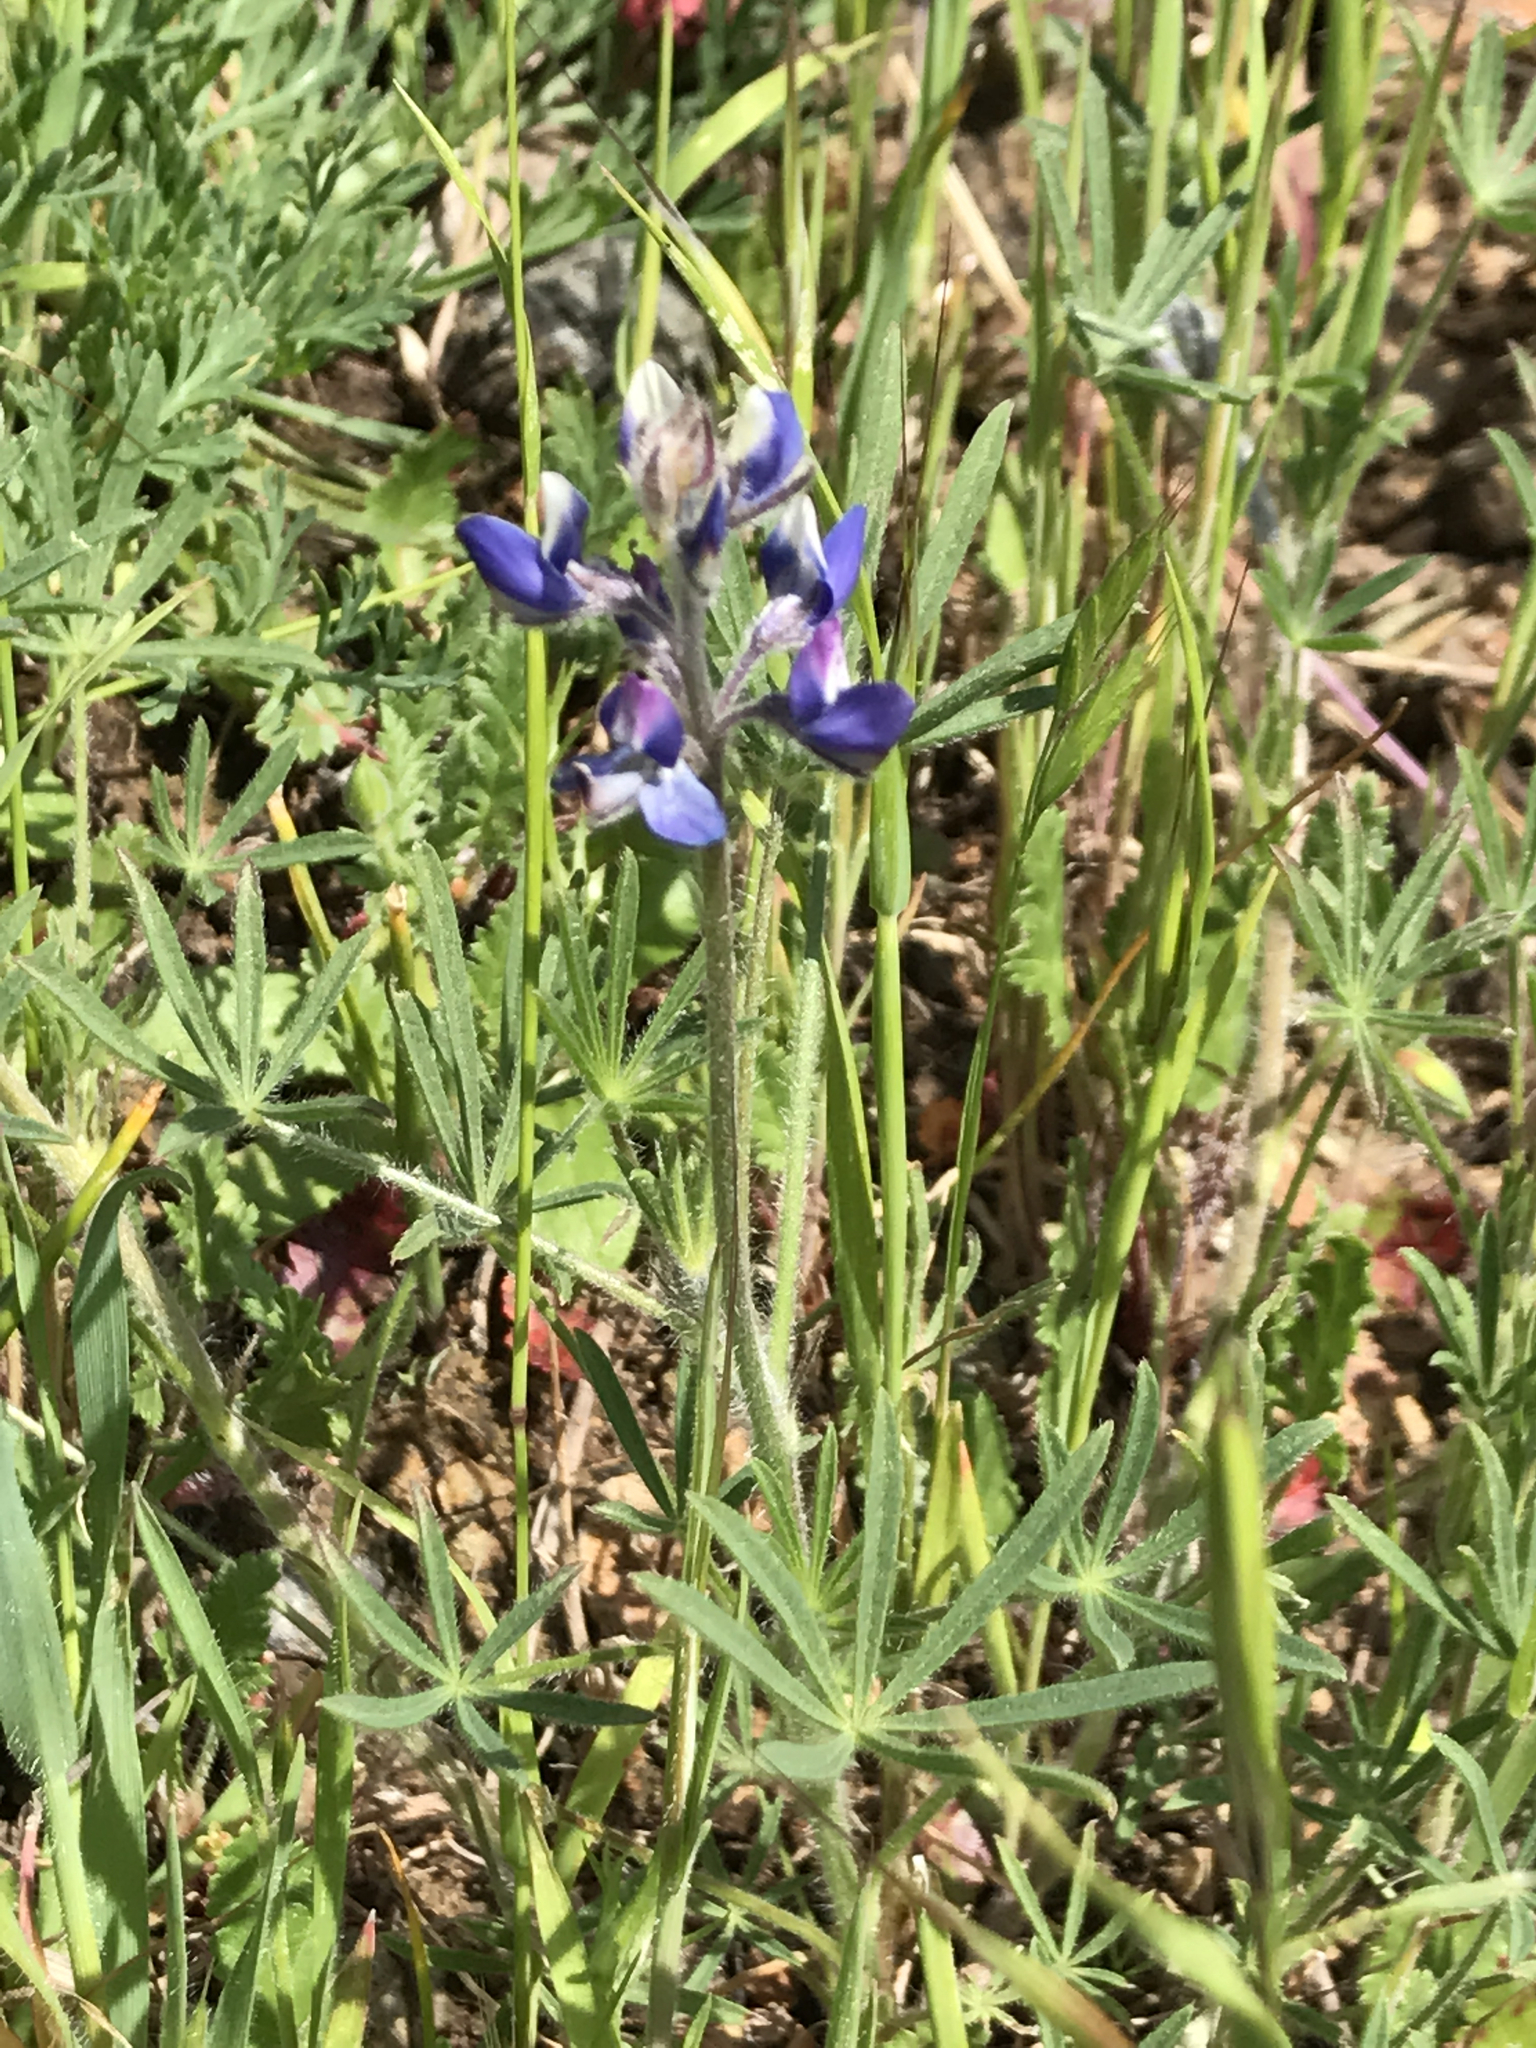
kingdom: Plantae
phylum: Tracheophyta
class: Magnoliopsida
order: Fabales
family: Fabaceae
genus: Lupinus
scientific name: Lupinus bicolor
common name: Miniature lupine
